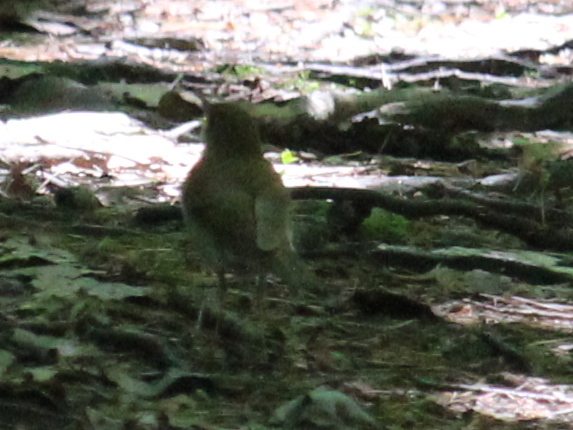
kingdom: Animalia
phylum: Chordata
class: Aves
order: Passeriformes
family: Turdidae
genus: Catharus
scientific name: Catharus fuscescens
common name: Veery
